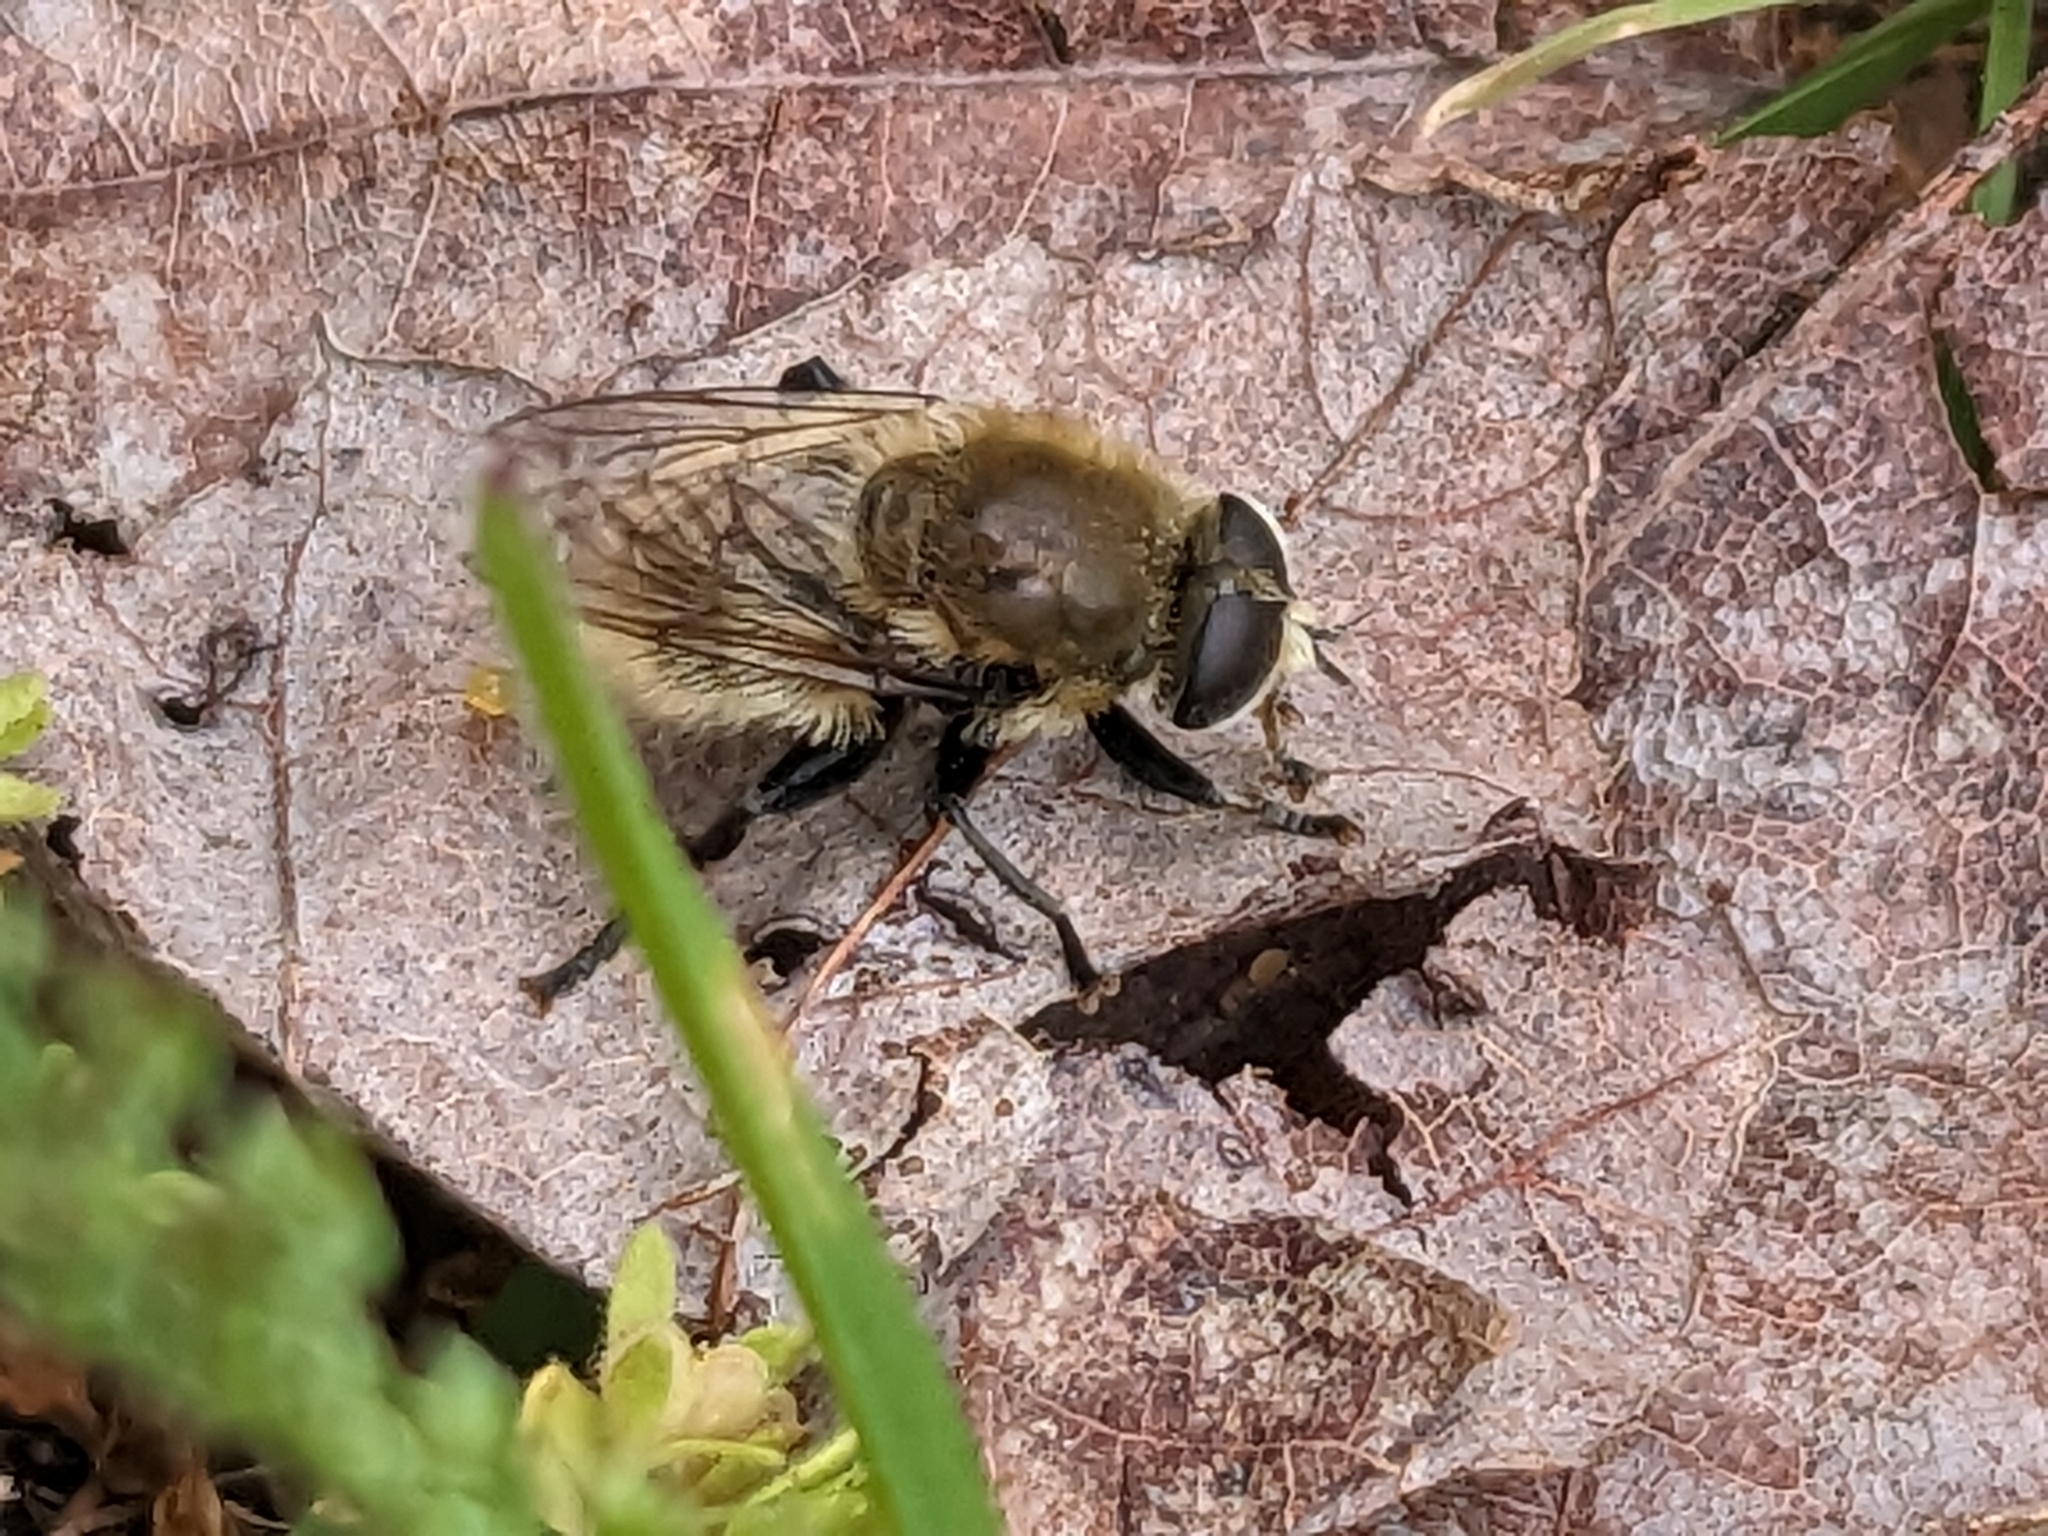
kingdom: Animalia
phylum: Arthropoda
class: Insecta
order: Diptera
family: Syrphidae
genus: Merodon
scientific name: Merodon equestris
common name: Greater bulb-fly
